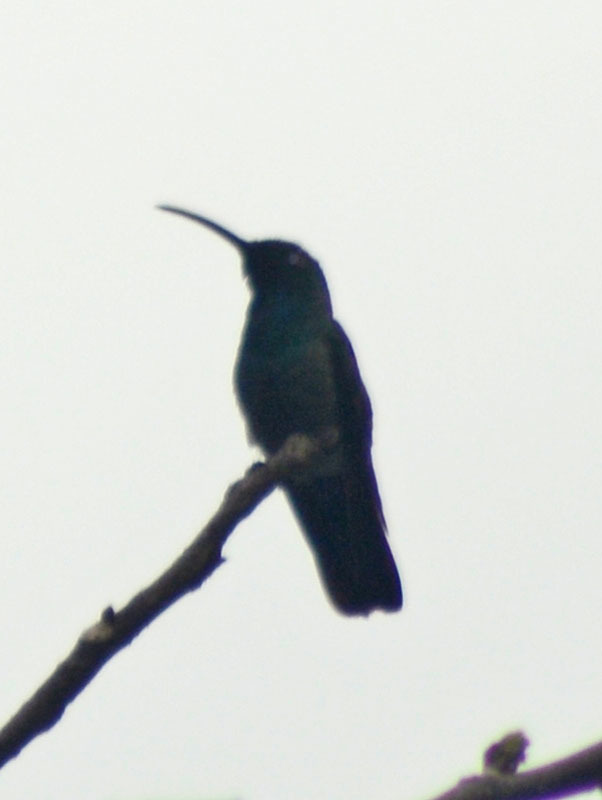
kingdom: Animalia
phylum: Chordata
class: Aves
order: Apodiformes
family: Trochilidae
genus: Anthracothorax
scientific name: Anthracothorax prevostii
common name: Green-breasted mango
